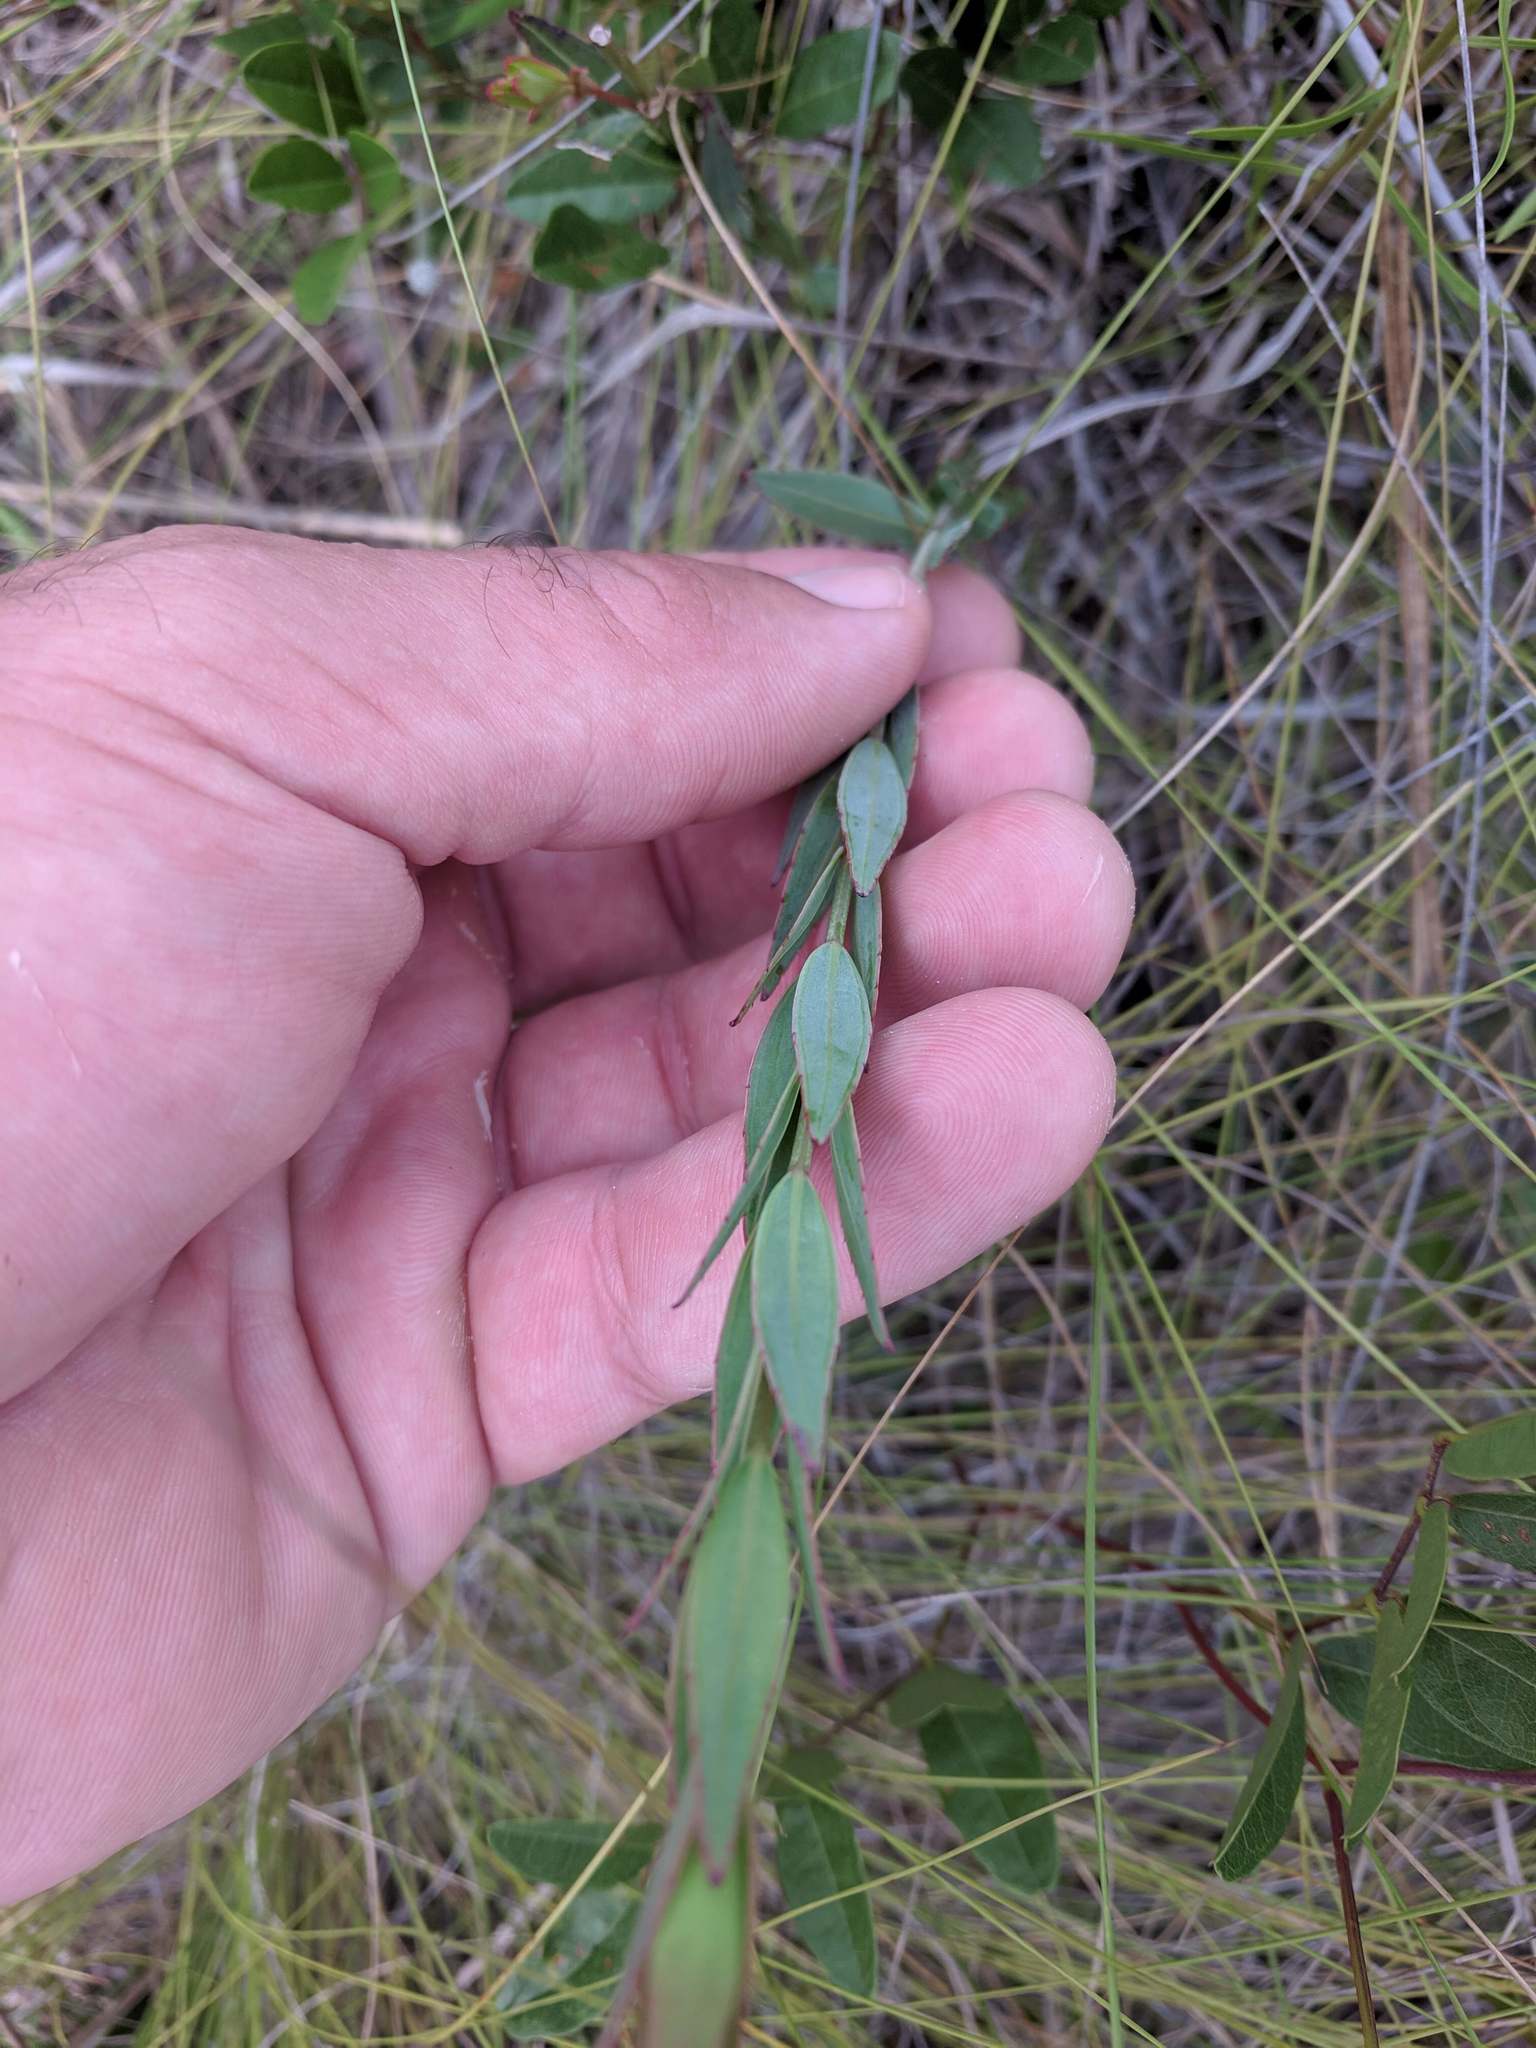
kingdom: Plantae
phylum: Tracheophyta
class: Magnoliopsida
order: Myrtales
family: Melastomataceae
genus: Rhexia
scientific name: Rhexia alifanus
